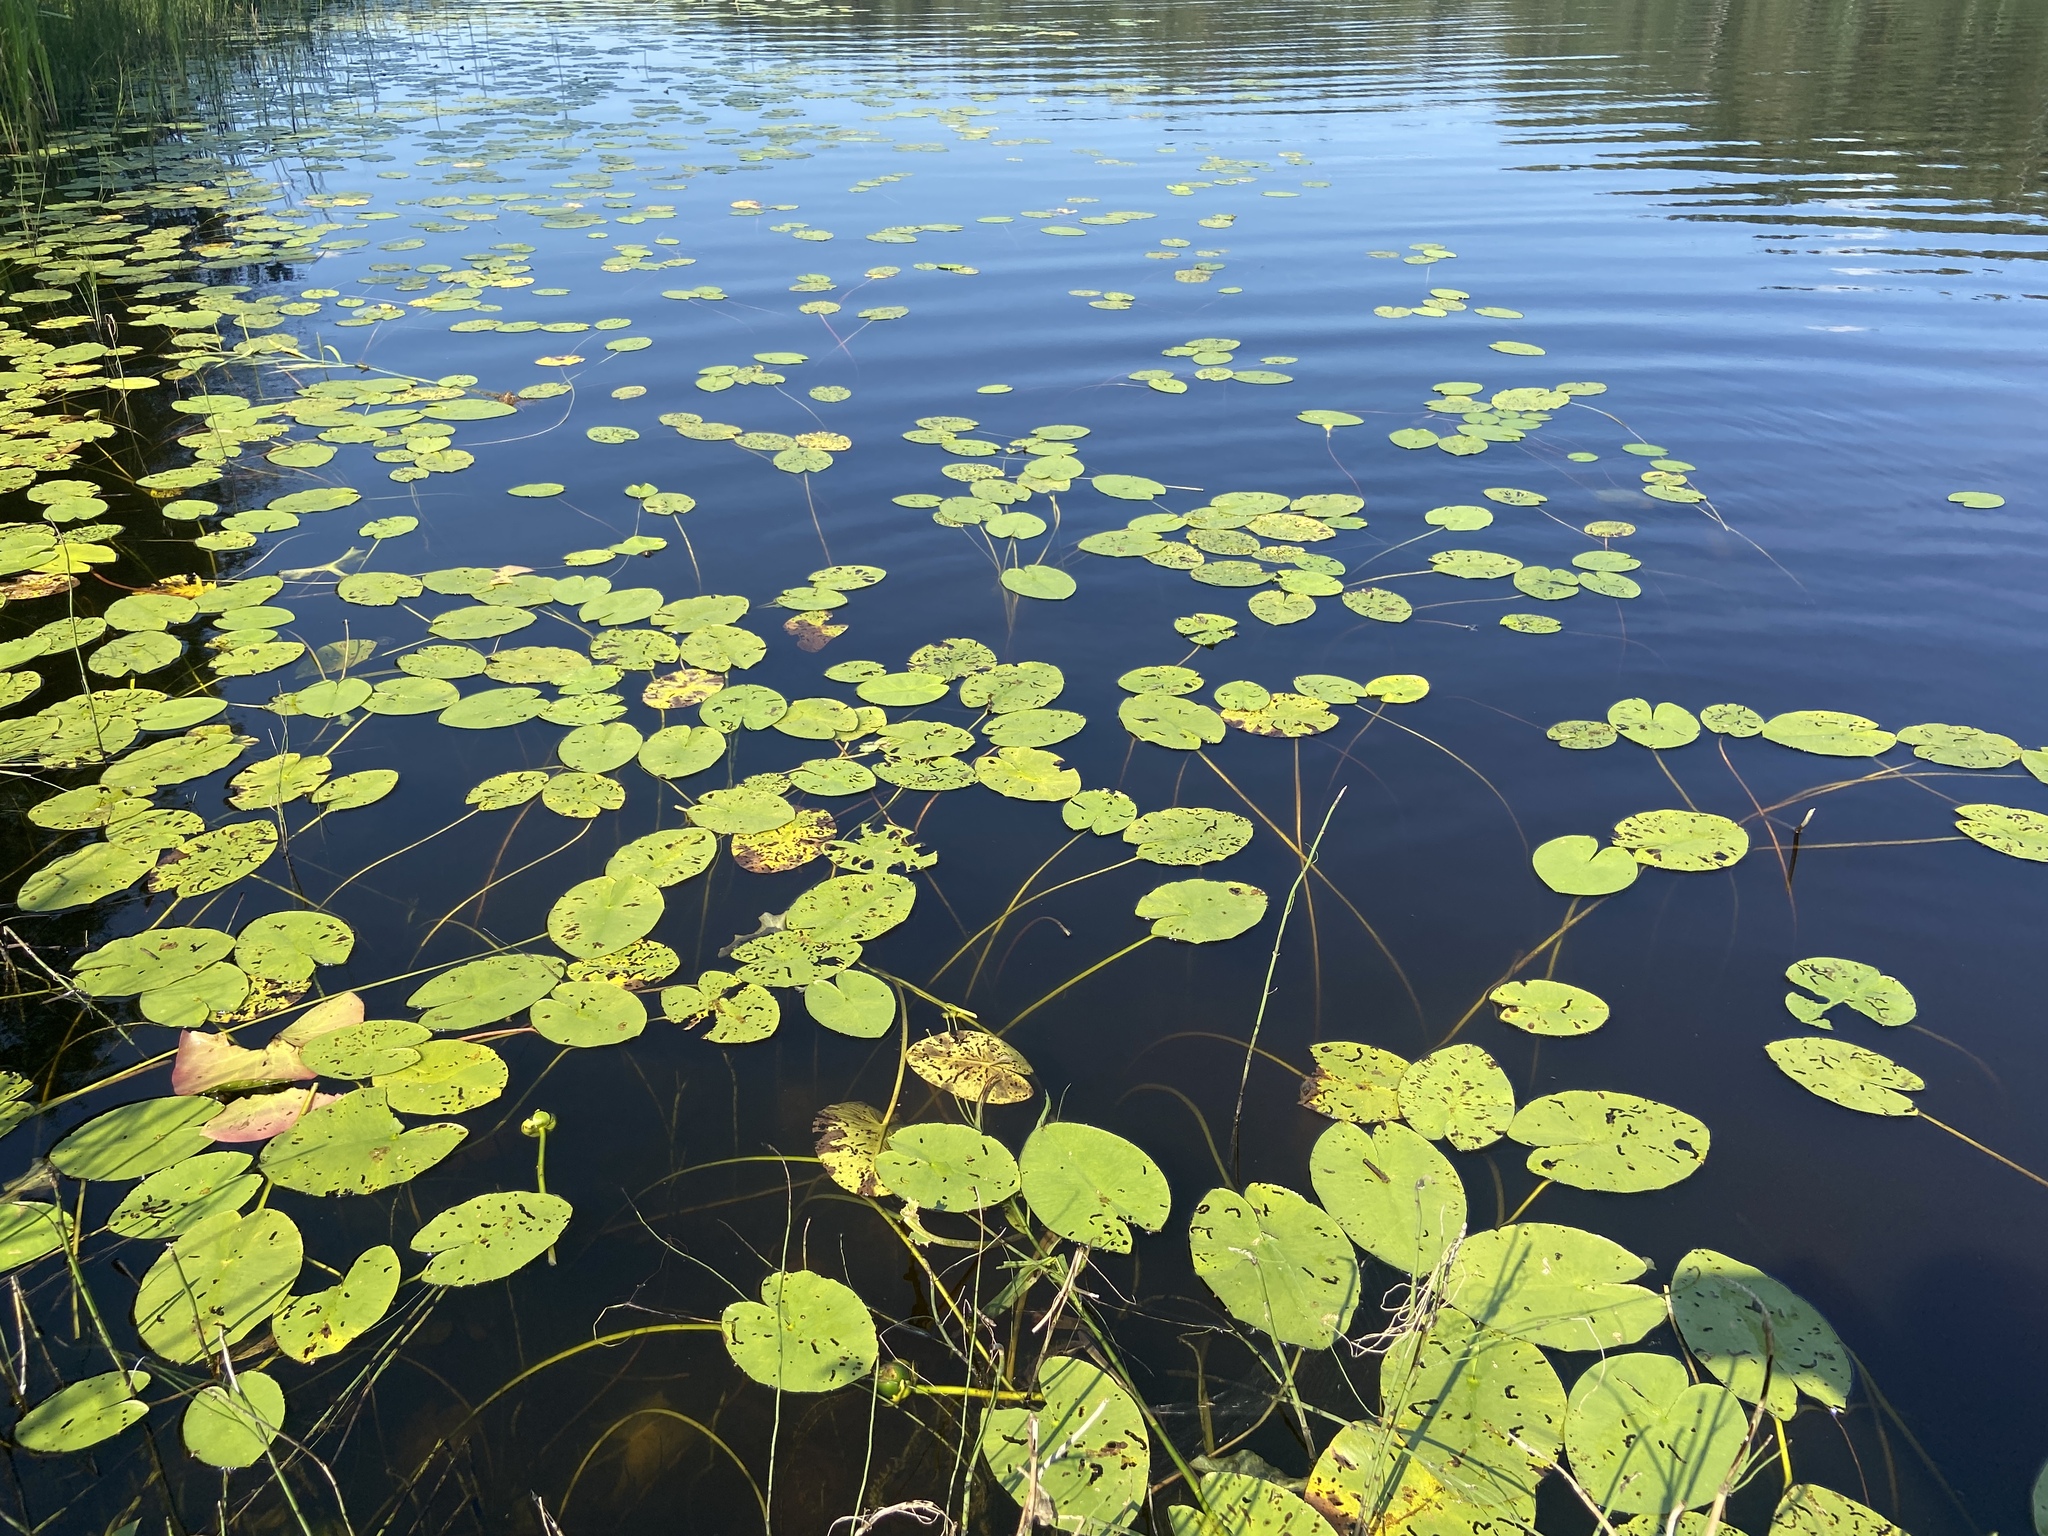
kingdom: Plantae
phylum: Tracheophyta
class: Magnoliopsida
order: Nymphaeales
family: Nymphaeaceae
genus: Nuphar
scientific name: Nuphar lutea
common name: Yellow water-lily
